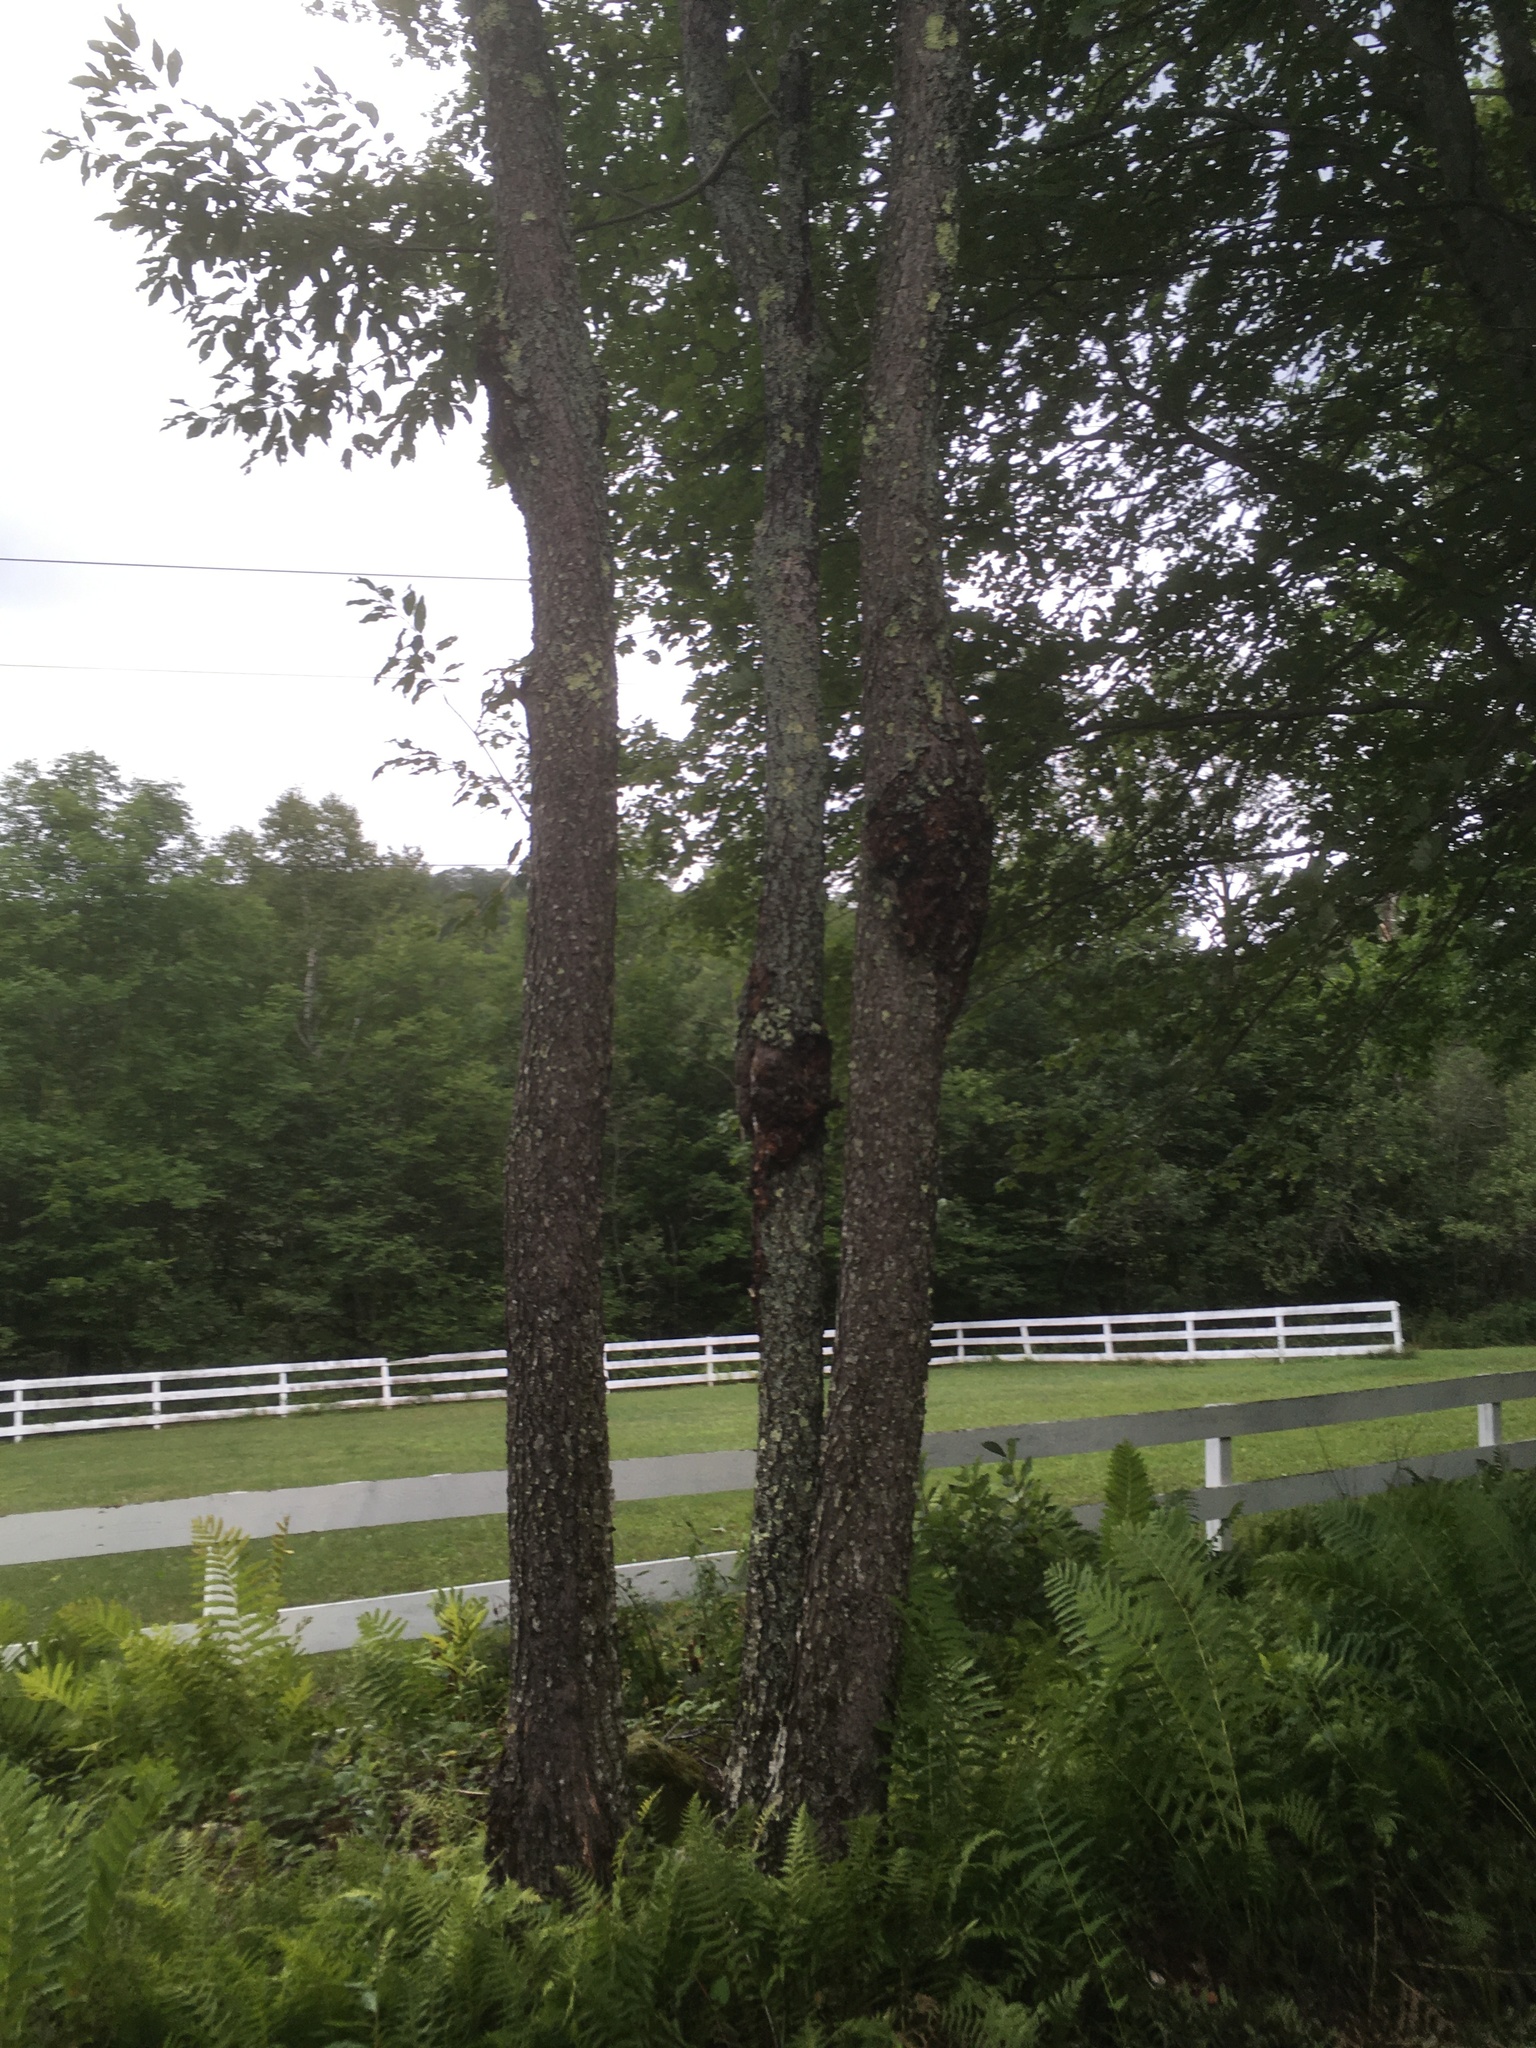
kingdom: Plantae
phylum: Tracheophyta
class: Magnoliopsida
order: Rosales
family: Rosaceae
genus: Prunus
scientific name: Prunus serotina
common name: Black cherry
